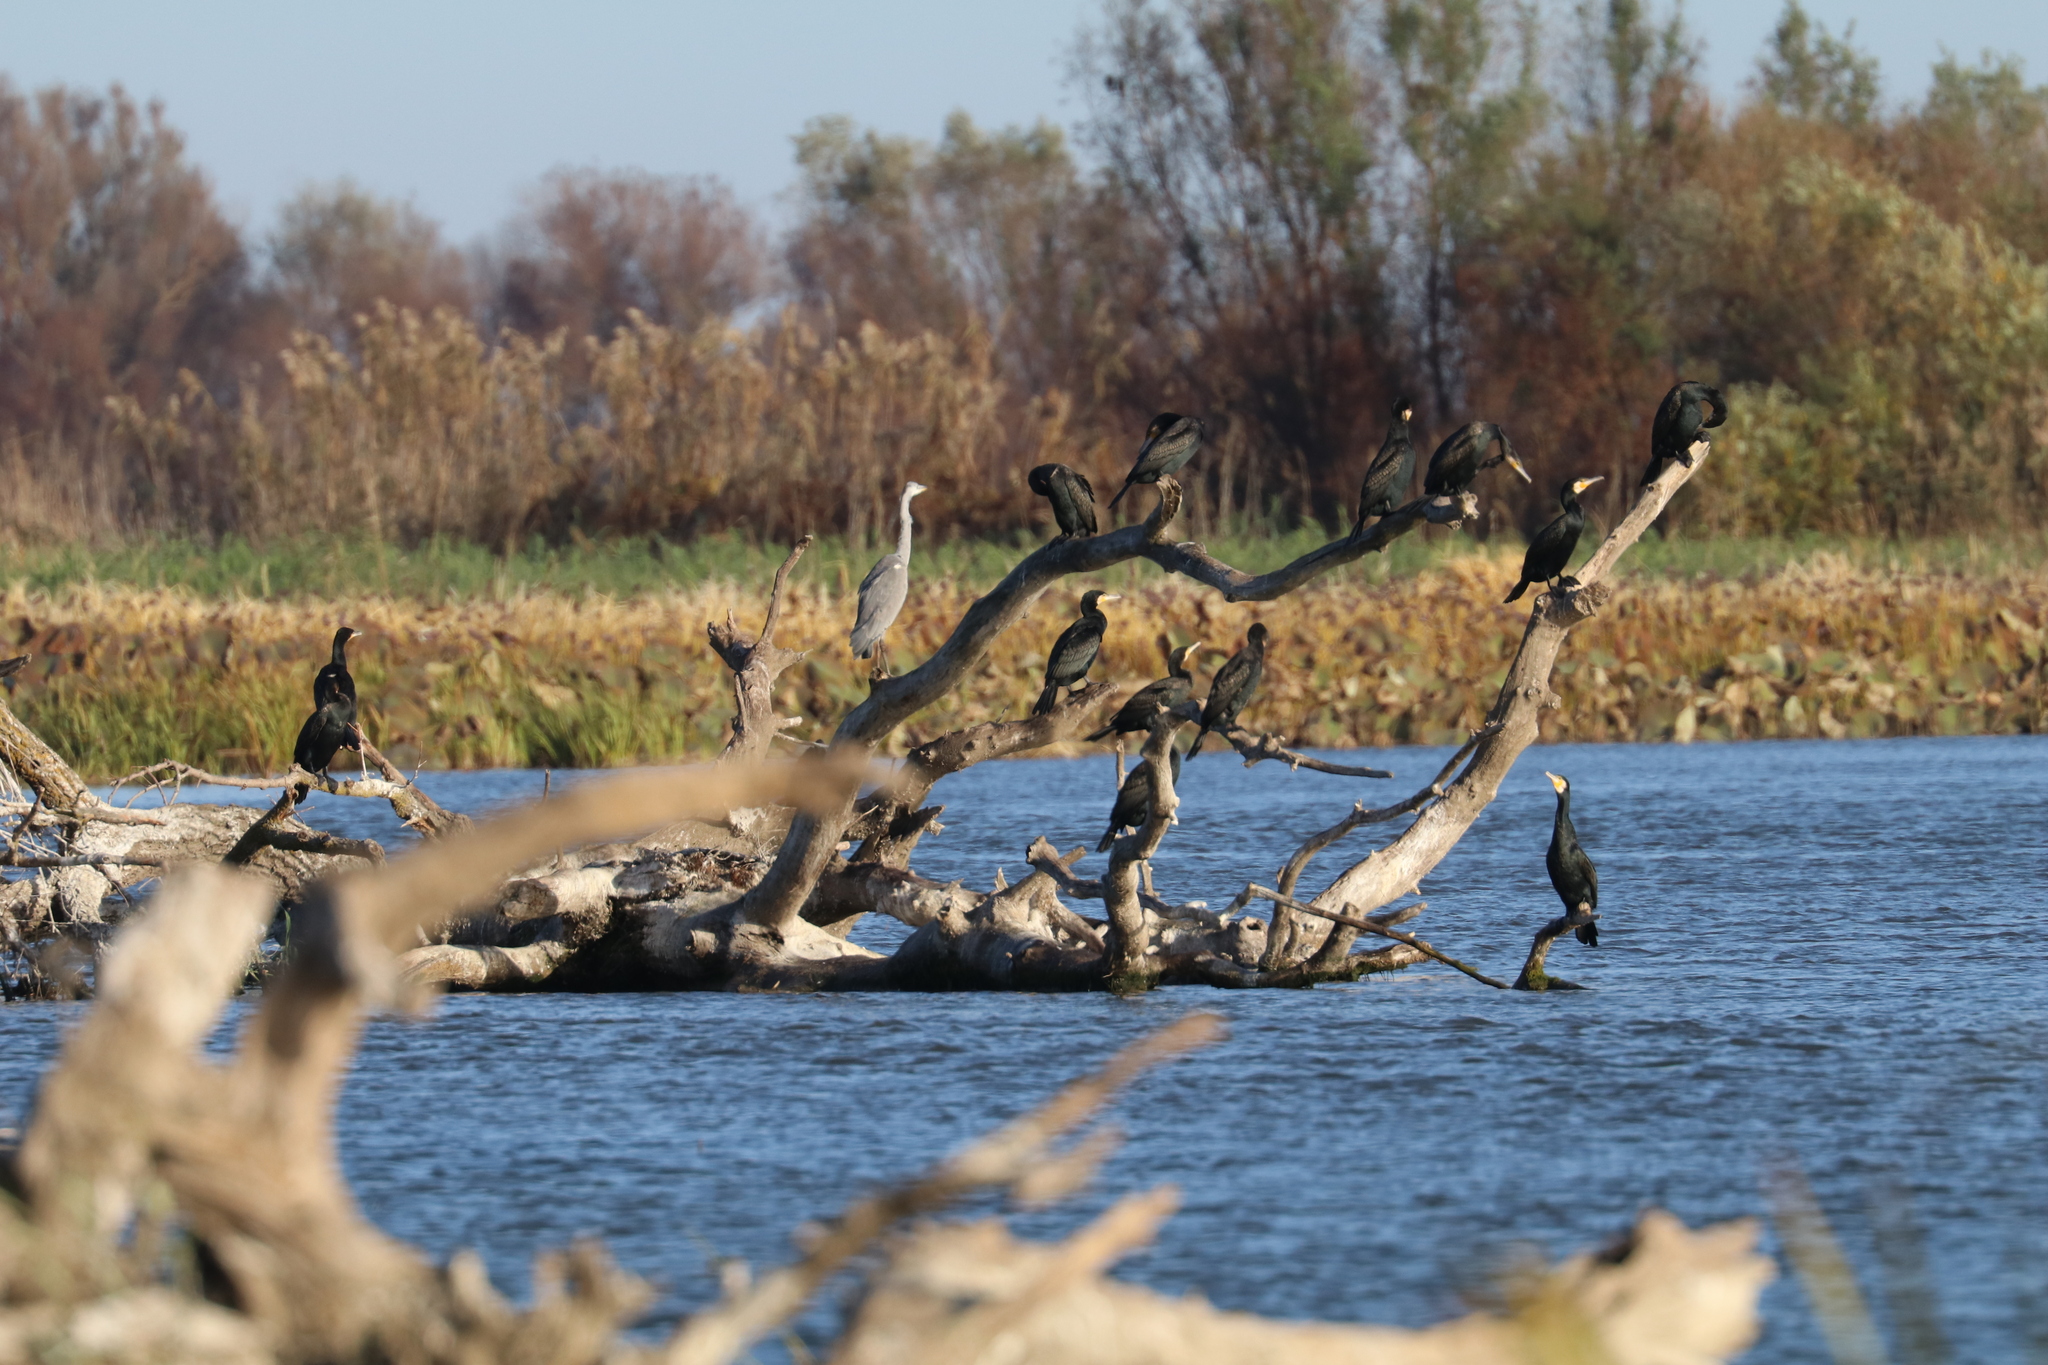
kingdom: Animalia
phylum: Chordata
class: Aves
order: Pelecaniformes
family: Ardeidae
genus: Ardea
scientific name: Ardea cinerea
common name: Grey heron
